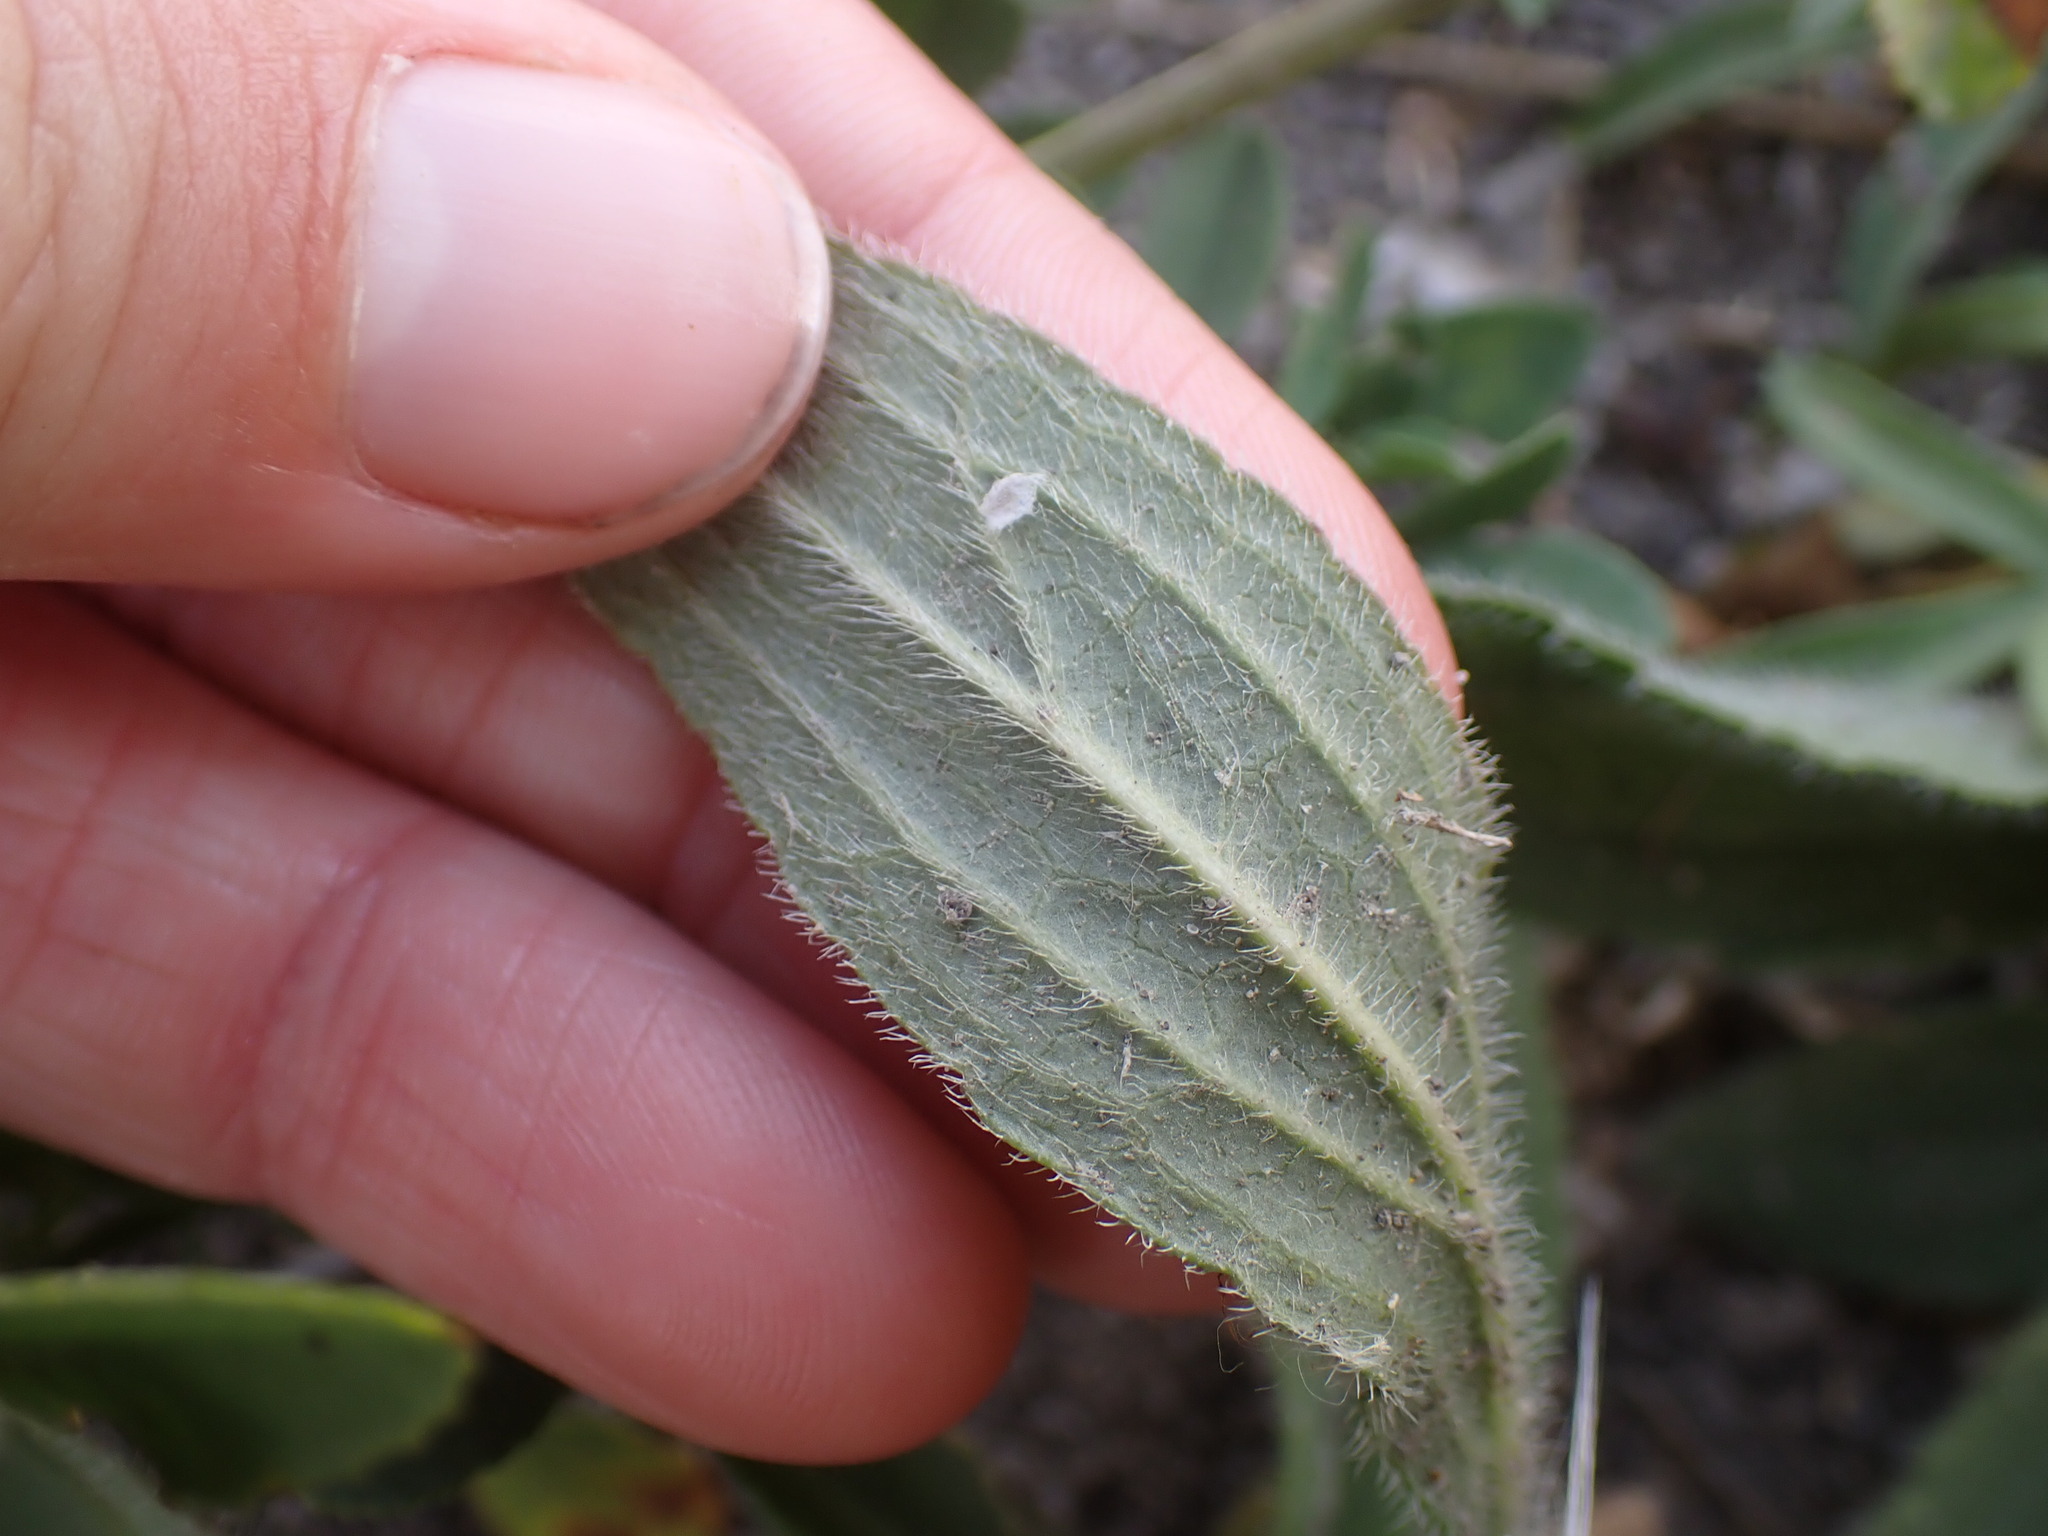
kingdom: Plantae
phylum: Tracheophyta
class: Magnoliopsida
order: Asterales
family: Asteraceae
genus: Rudbeckia
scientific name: Rudbeckia hirta
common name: Black-eyed-susan
